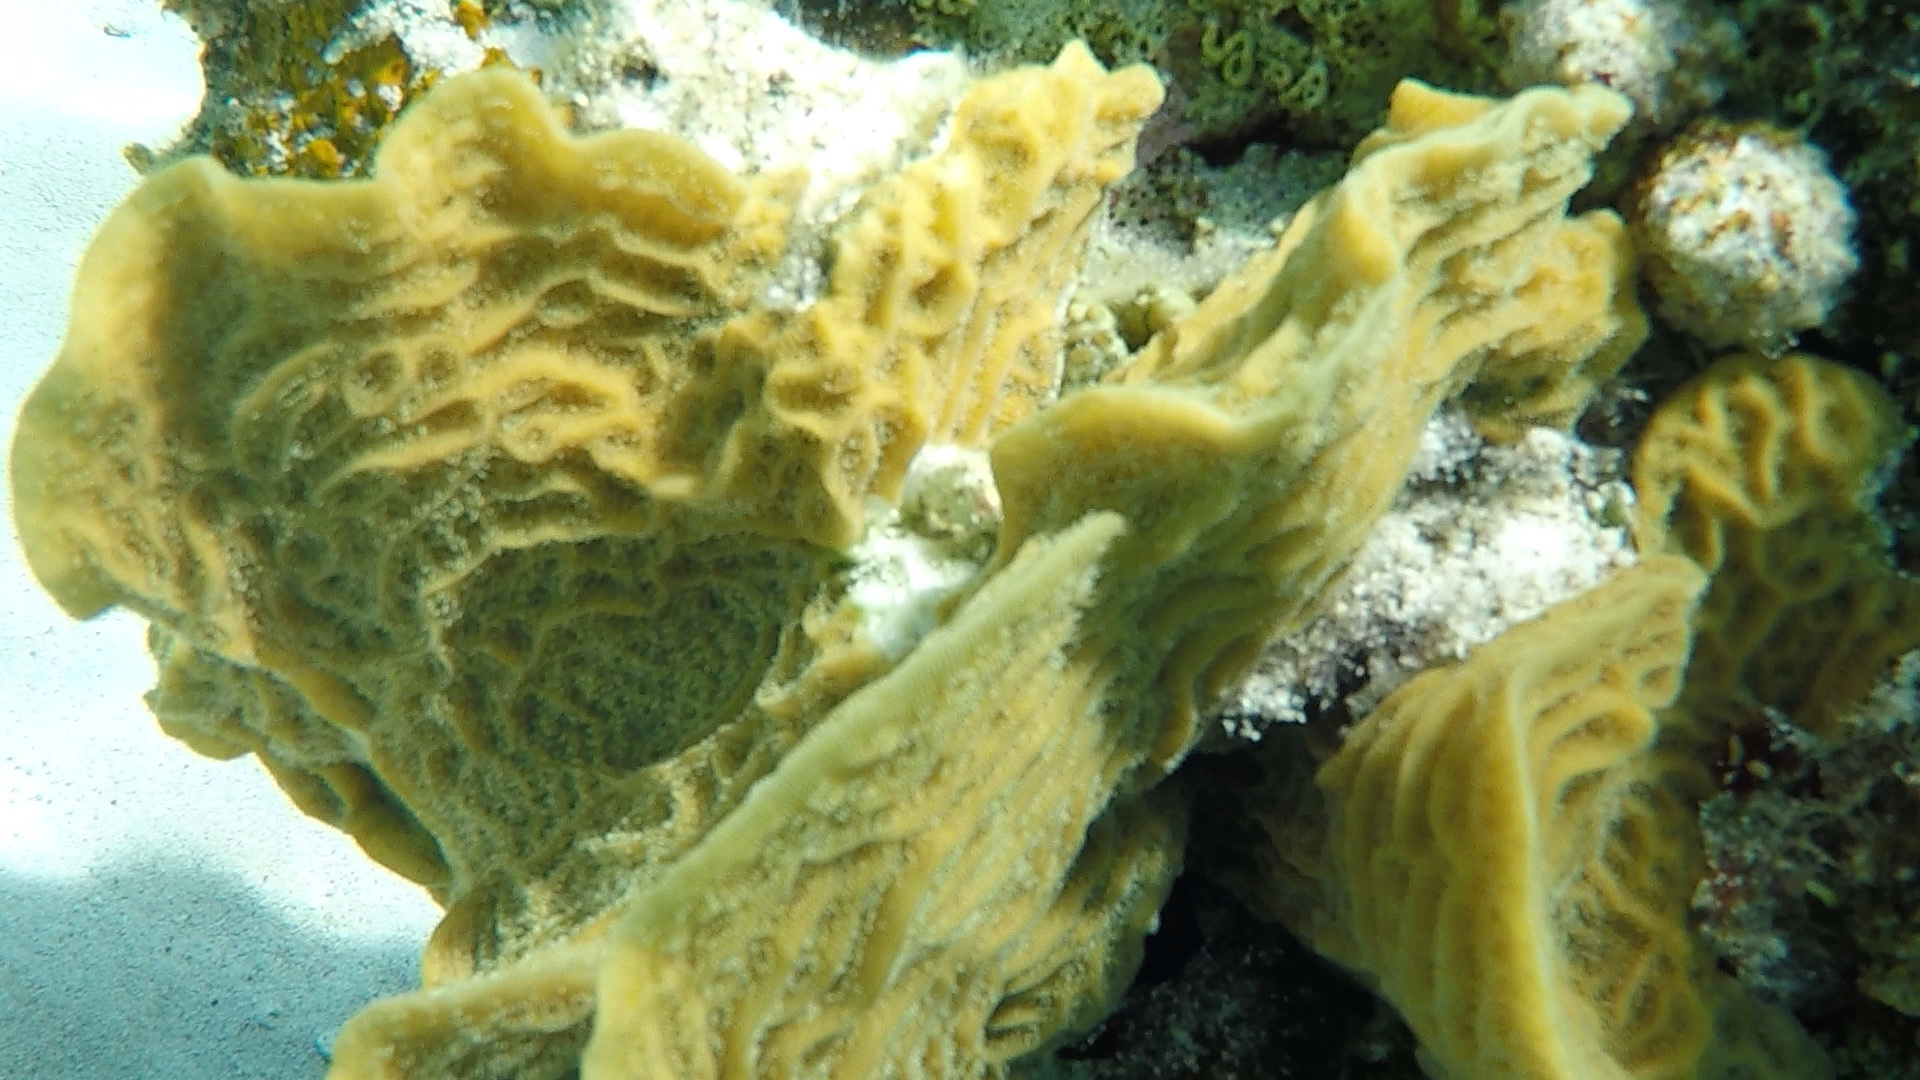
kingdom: Animalia
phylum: Cnidaria
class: Anthozoa
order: Scleractinia
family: Agariciidae
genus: Agaricia
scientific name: Agaricia agaricites
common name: Lettuce coral
